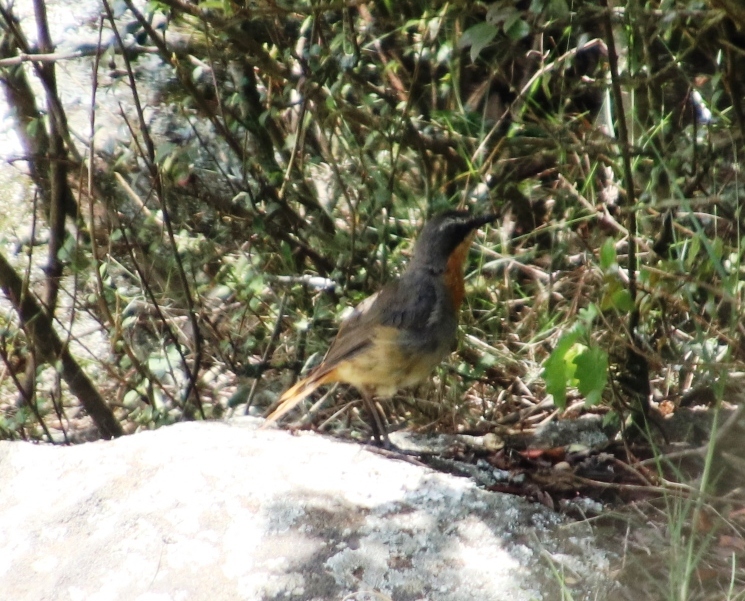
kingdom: Animalia
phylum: Chordata
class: Aves
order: Passeriformes
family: Muscicapidae
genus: Cossypha
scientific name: Cossypha caffra
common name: Cape robin-chat
